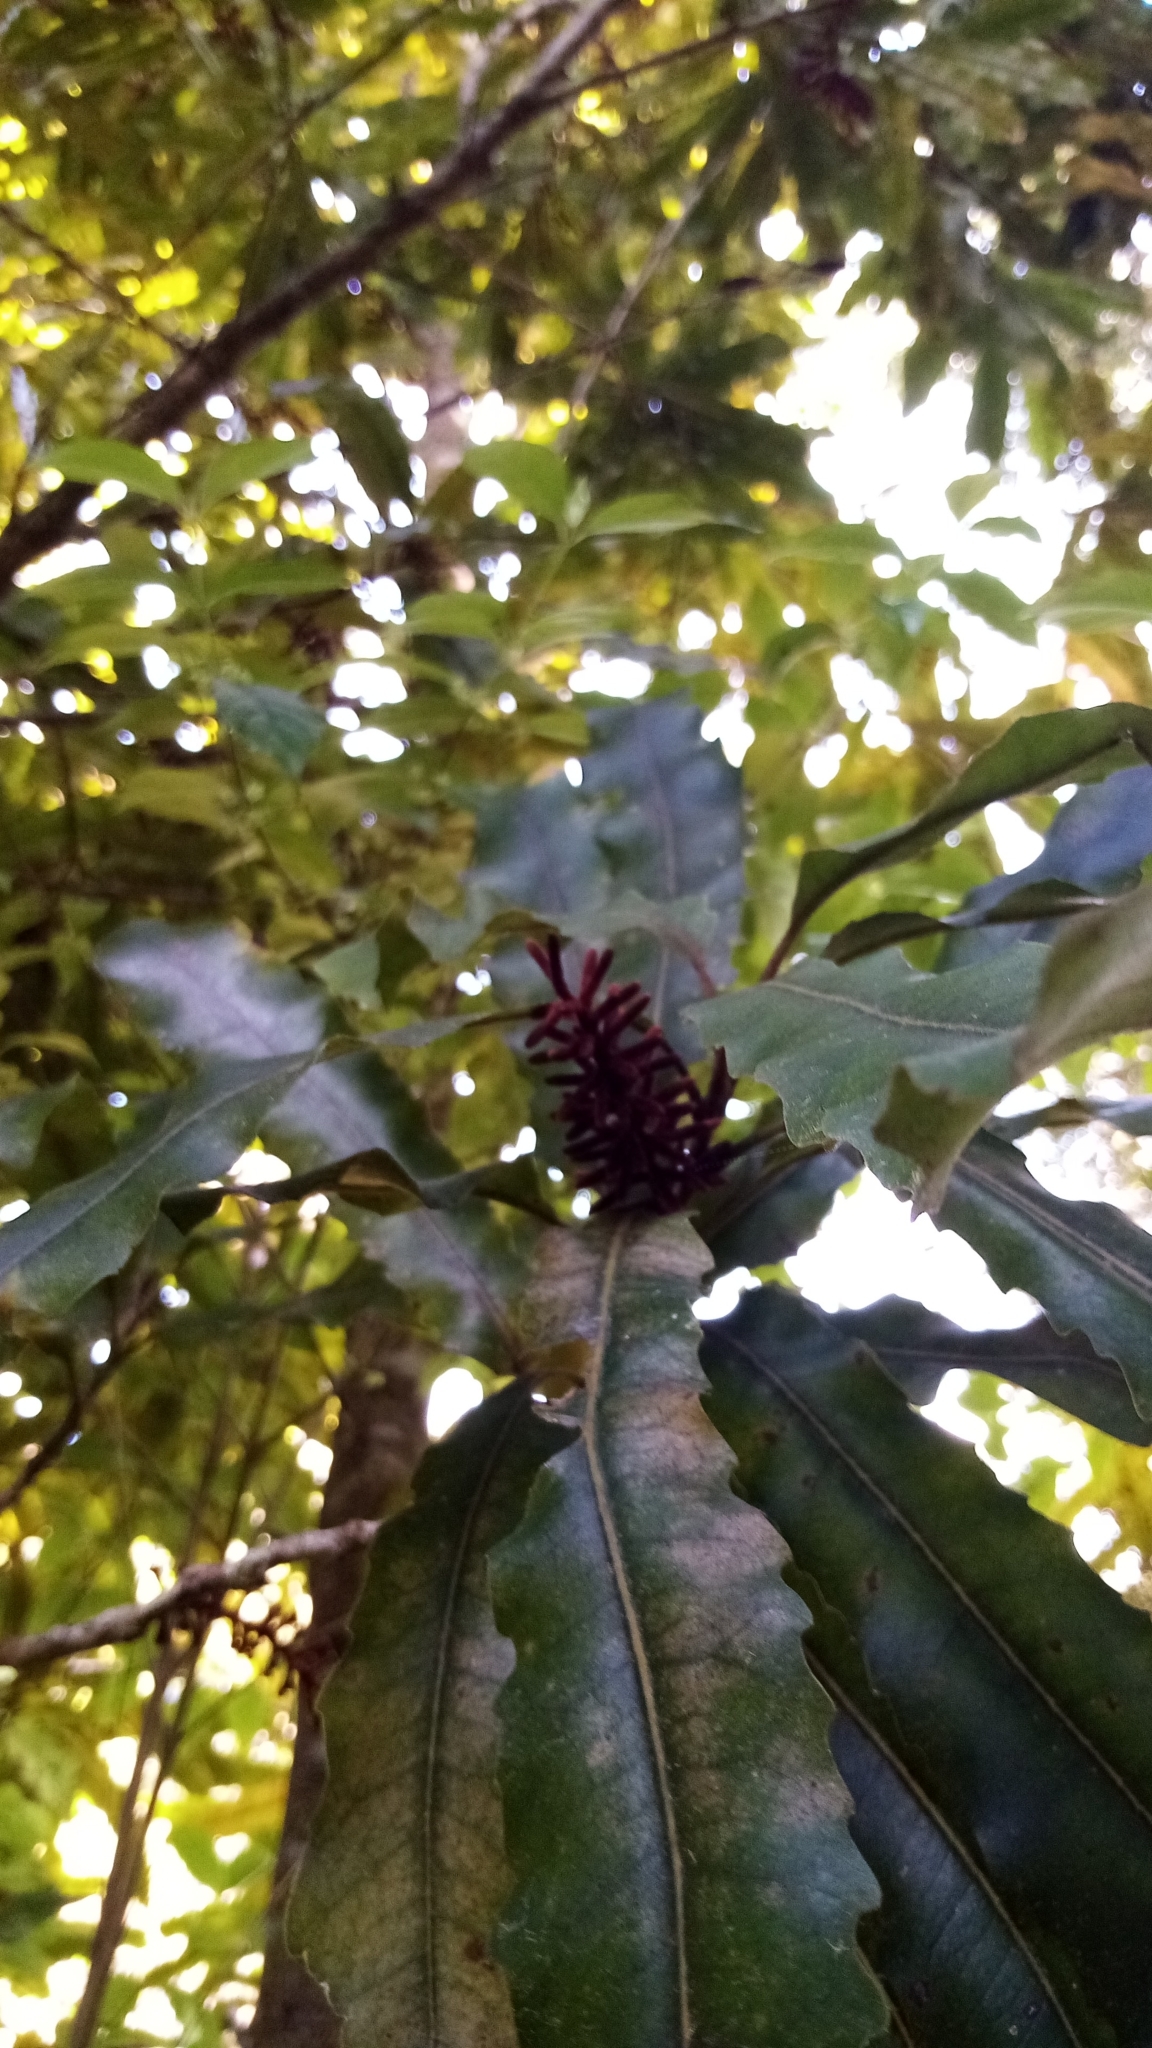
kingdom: Plantae
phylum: Tracheophyta
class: Magnoliopsida
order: Proteales
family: Proteaceae
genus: Knightia
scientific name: Knightia excelsa
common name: New zealand-honeysuckle
